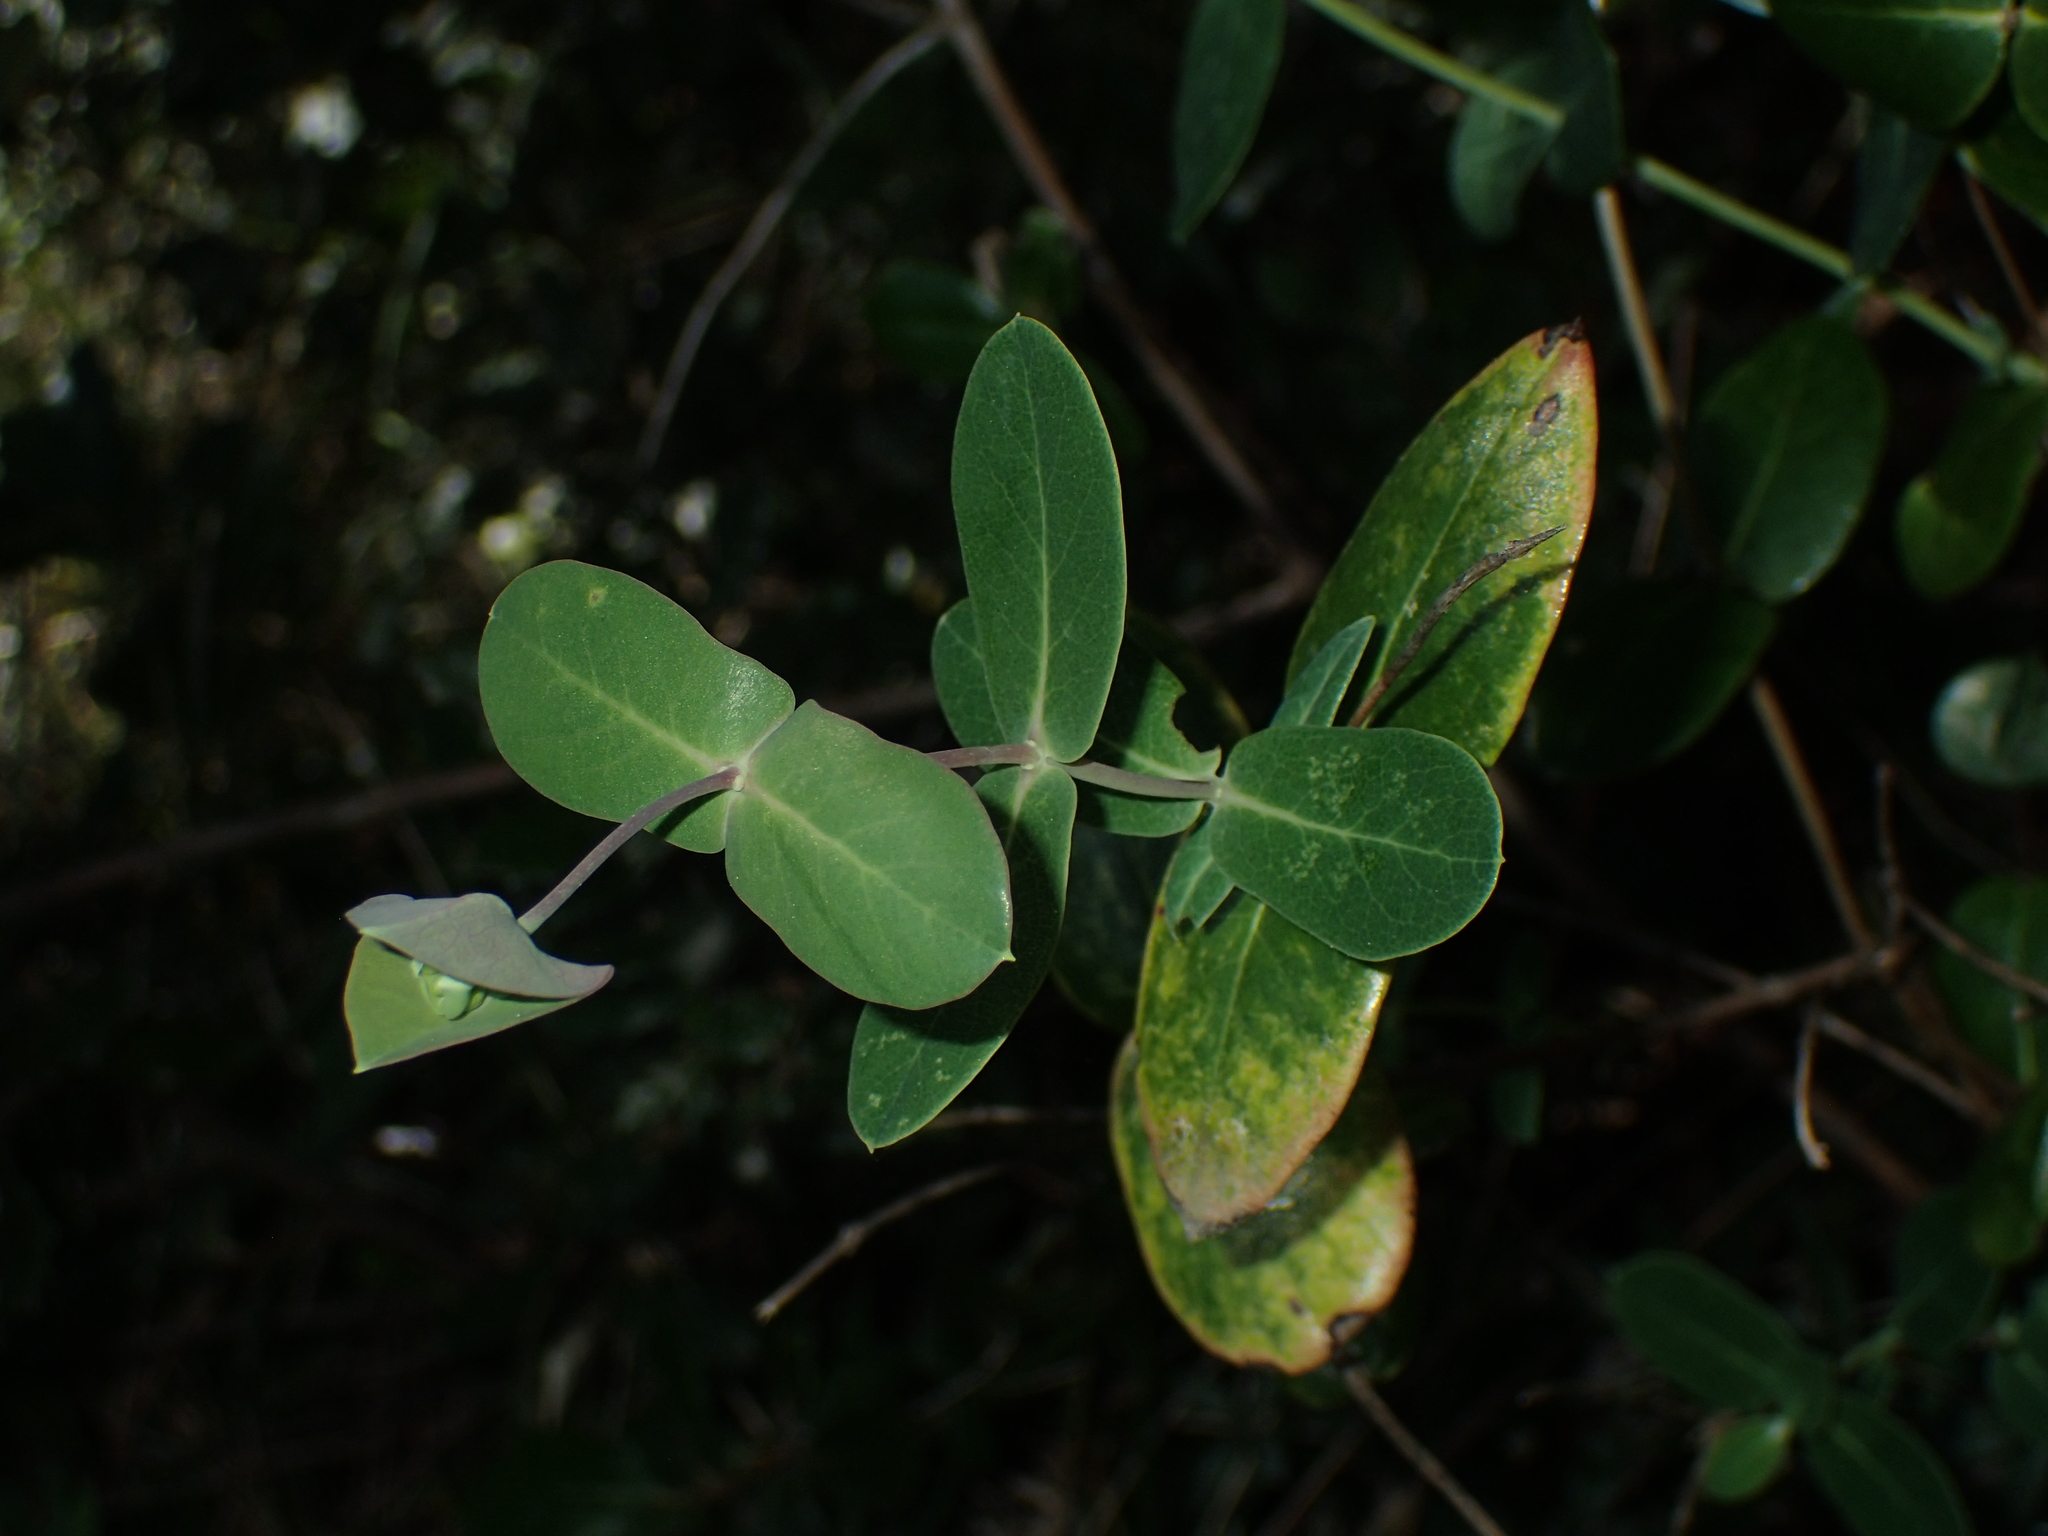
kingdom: Plantae
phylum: Tracheophyta
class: Magnoliopsida
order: Dipsacales
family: Caprifoliaceae
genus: Lonicera
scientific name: Lonicera implexa
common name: Minorca honeysuckle
